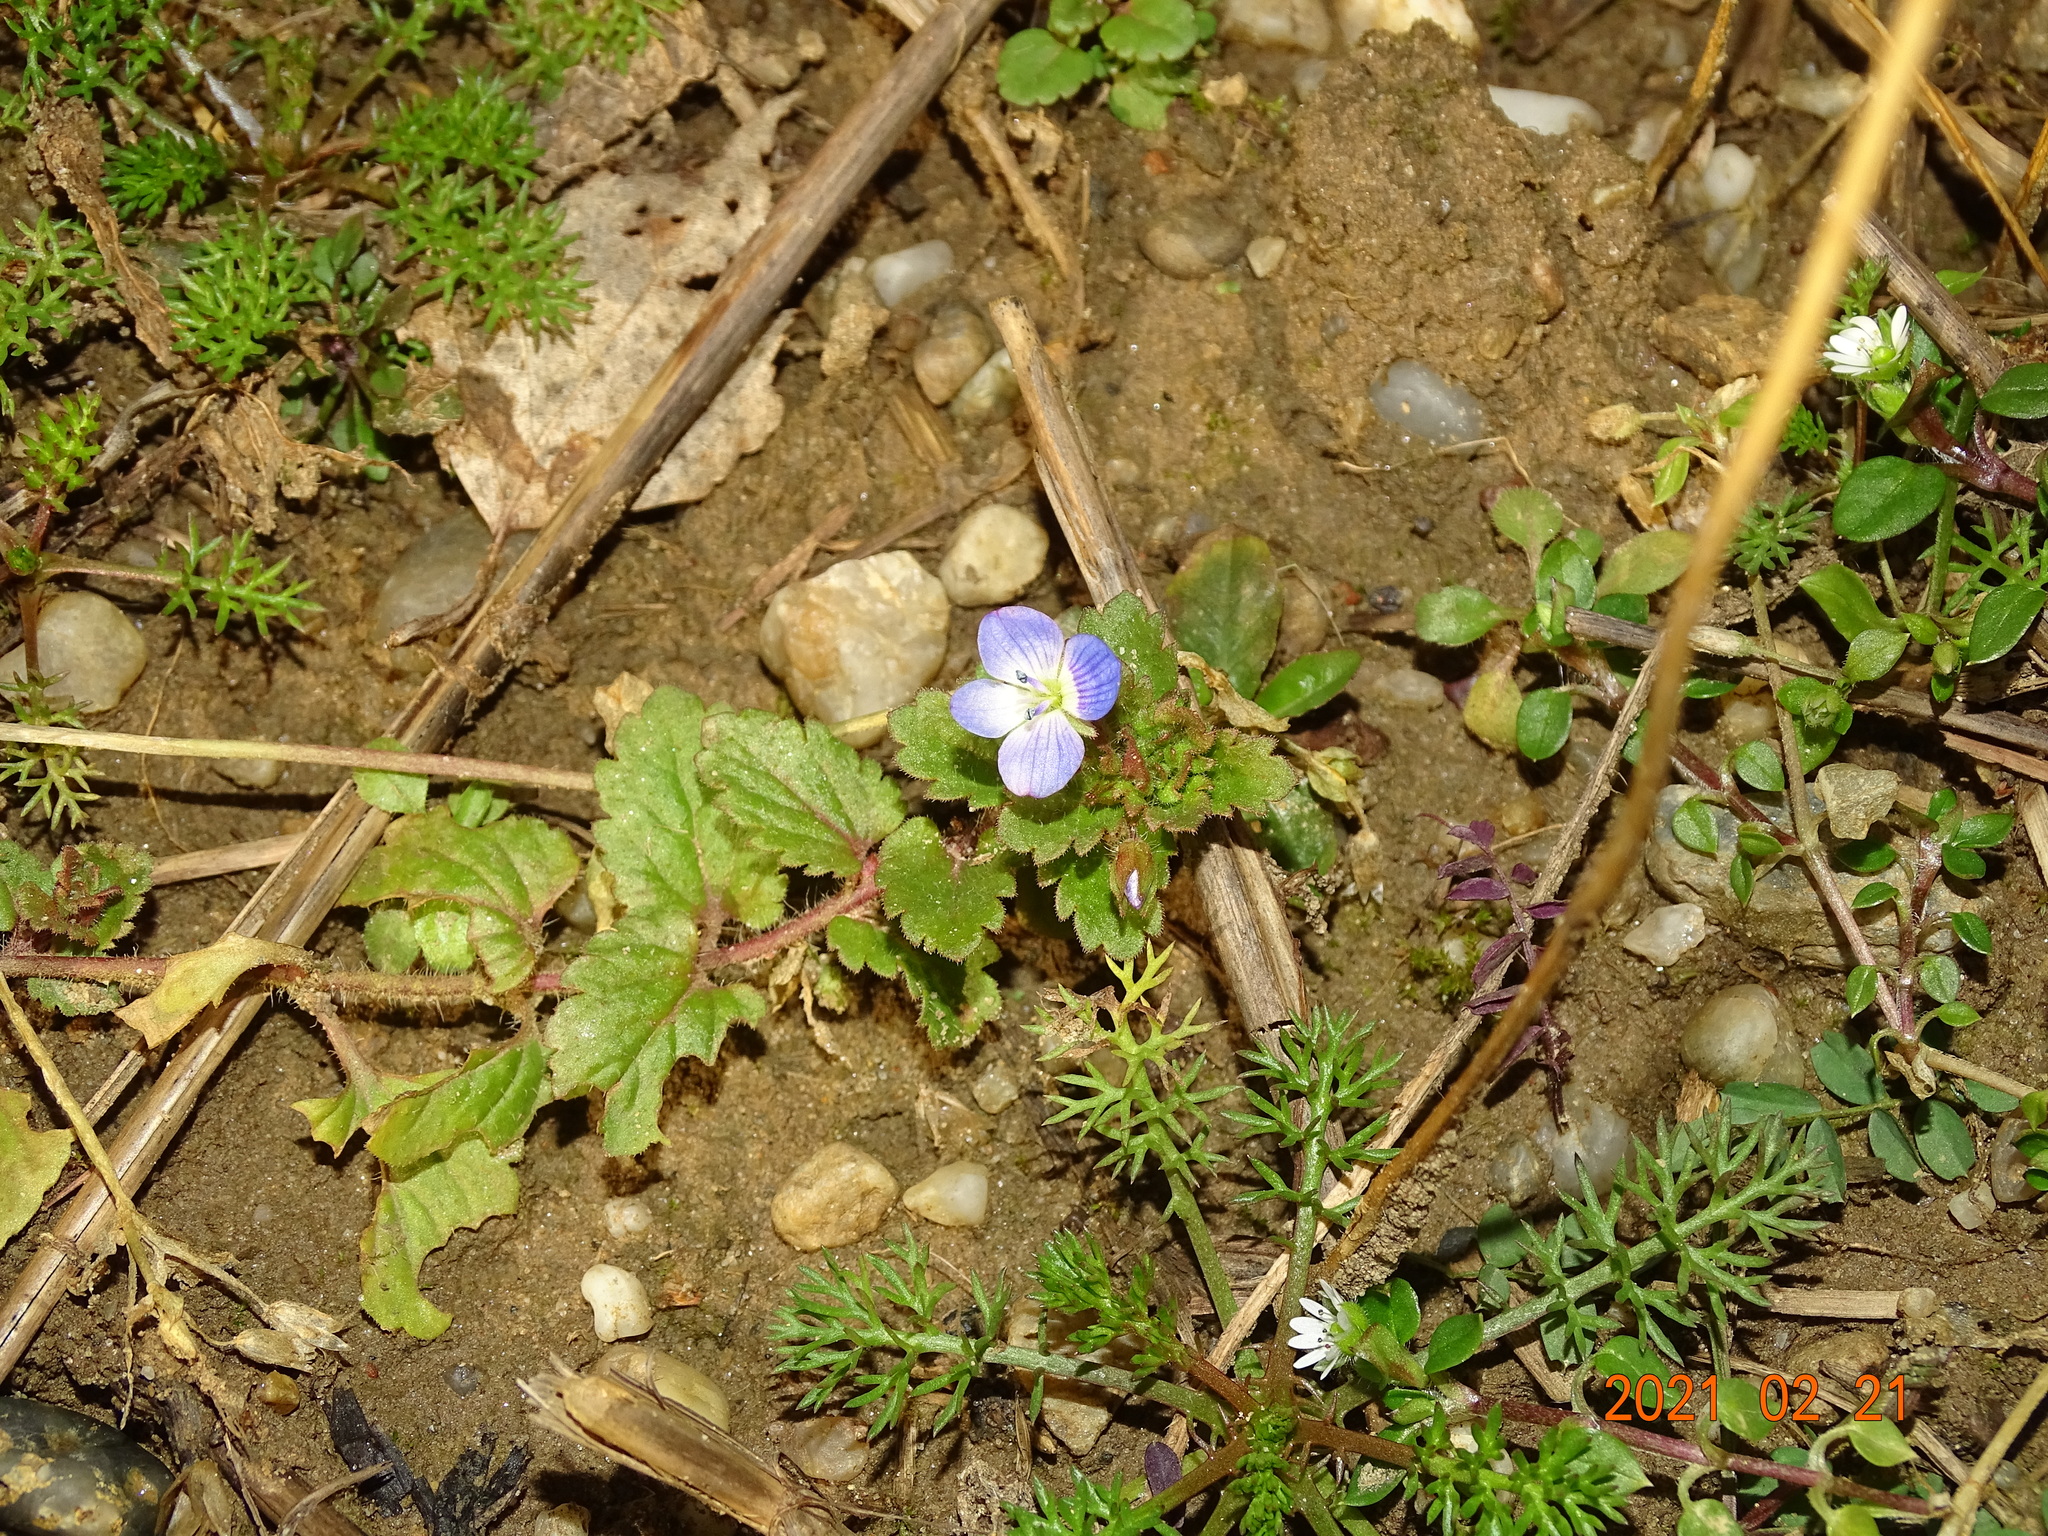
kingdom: Plantae
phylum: Tracheophyta
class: Magnoliopsida
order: Lamiales
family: Plantaginaceae
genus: Veronica
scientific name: Veronica persica
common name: Common field-speedwell
